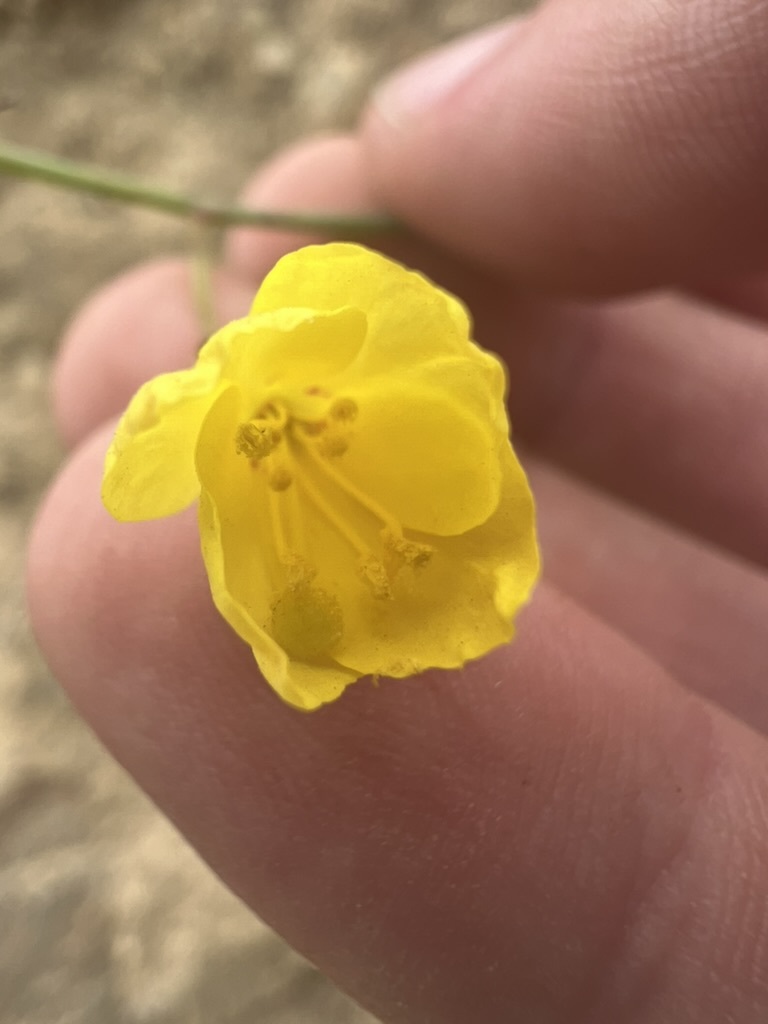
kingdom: Plantae
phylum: Tracheophyta
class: Magnoliopsida
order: Myrtales
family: Onagraceae
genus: Eulobus
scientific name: Eulobus californicus
